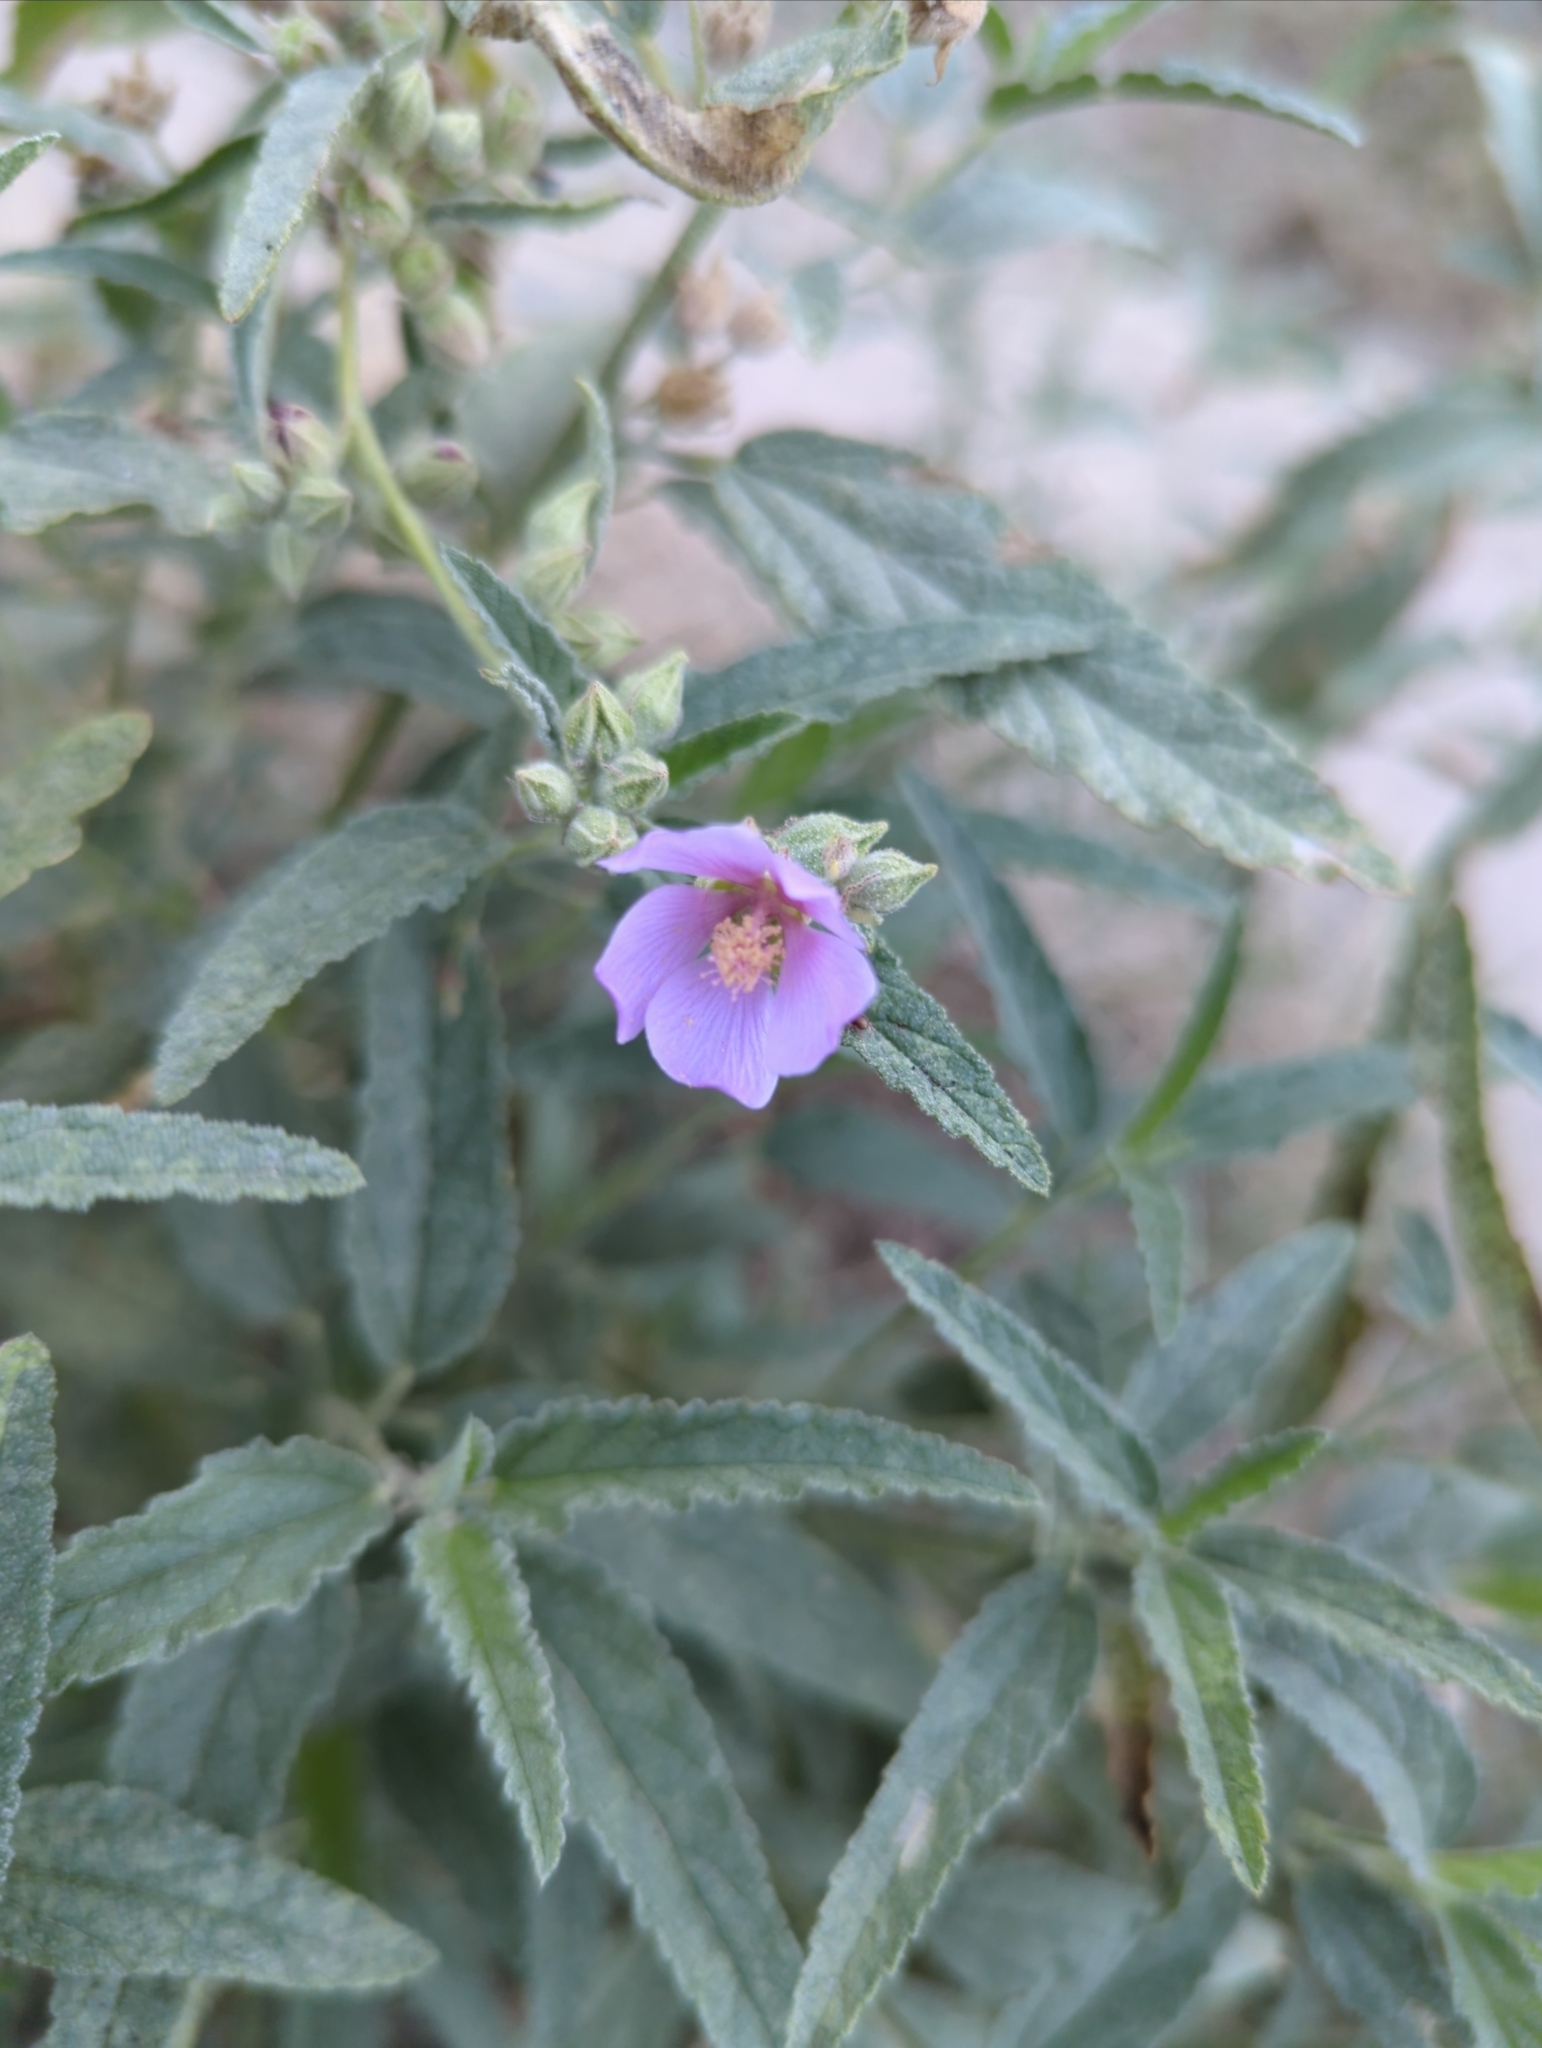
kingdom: Plantae
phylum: Tracheophyta
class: Magnoliopsida
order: Malvales
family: Malvaceae
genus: Sphaeralcea
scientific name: Sphaeralcea angustifolia
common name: Copper globe-mallow
